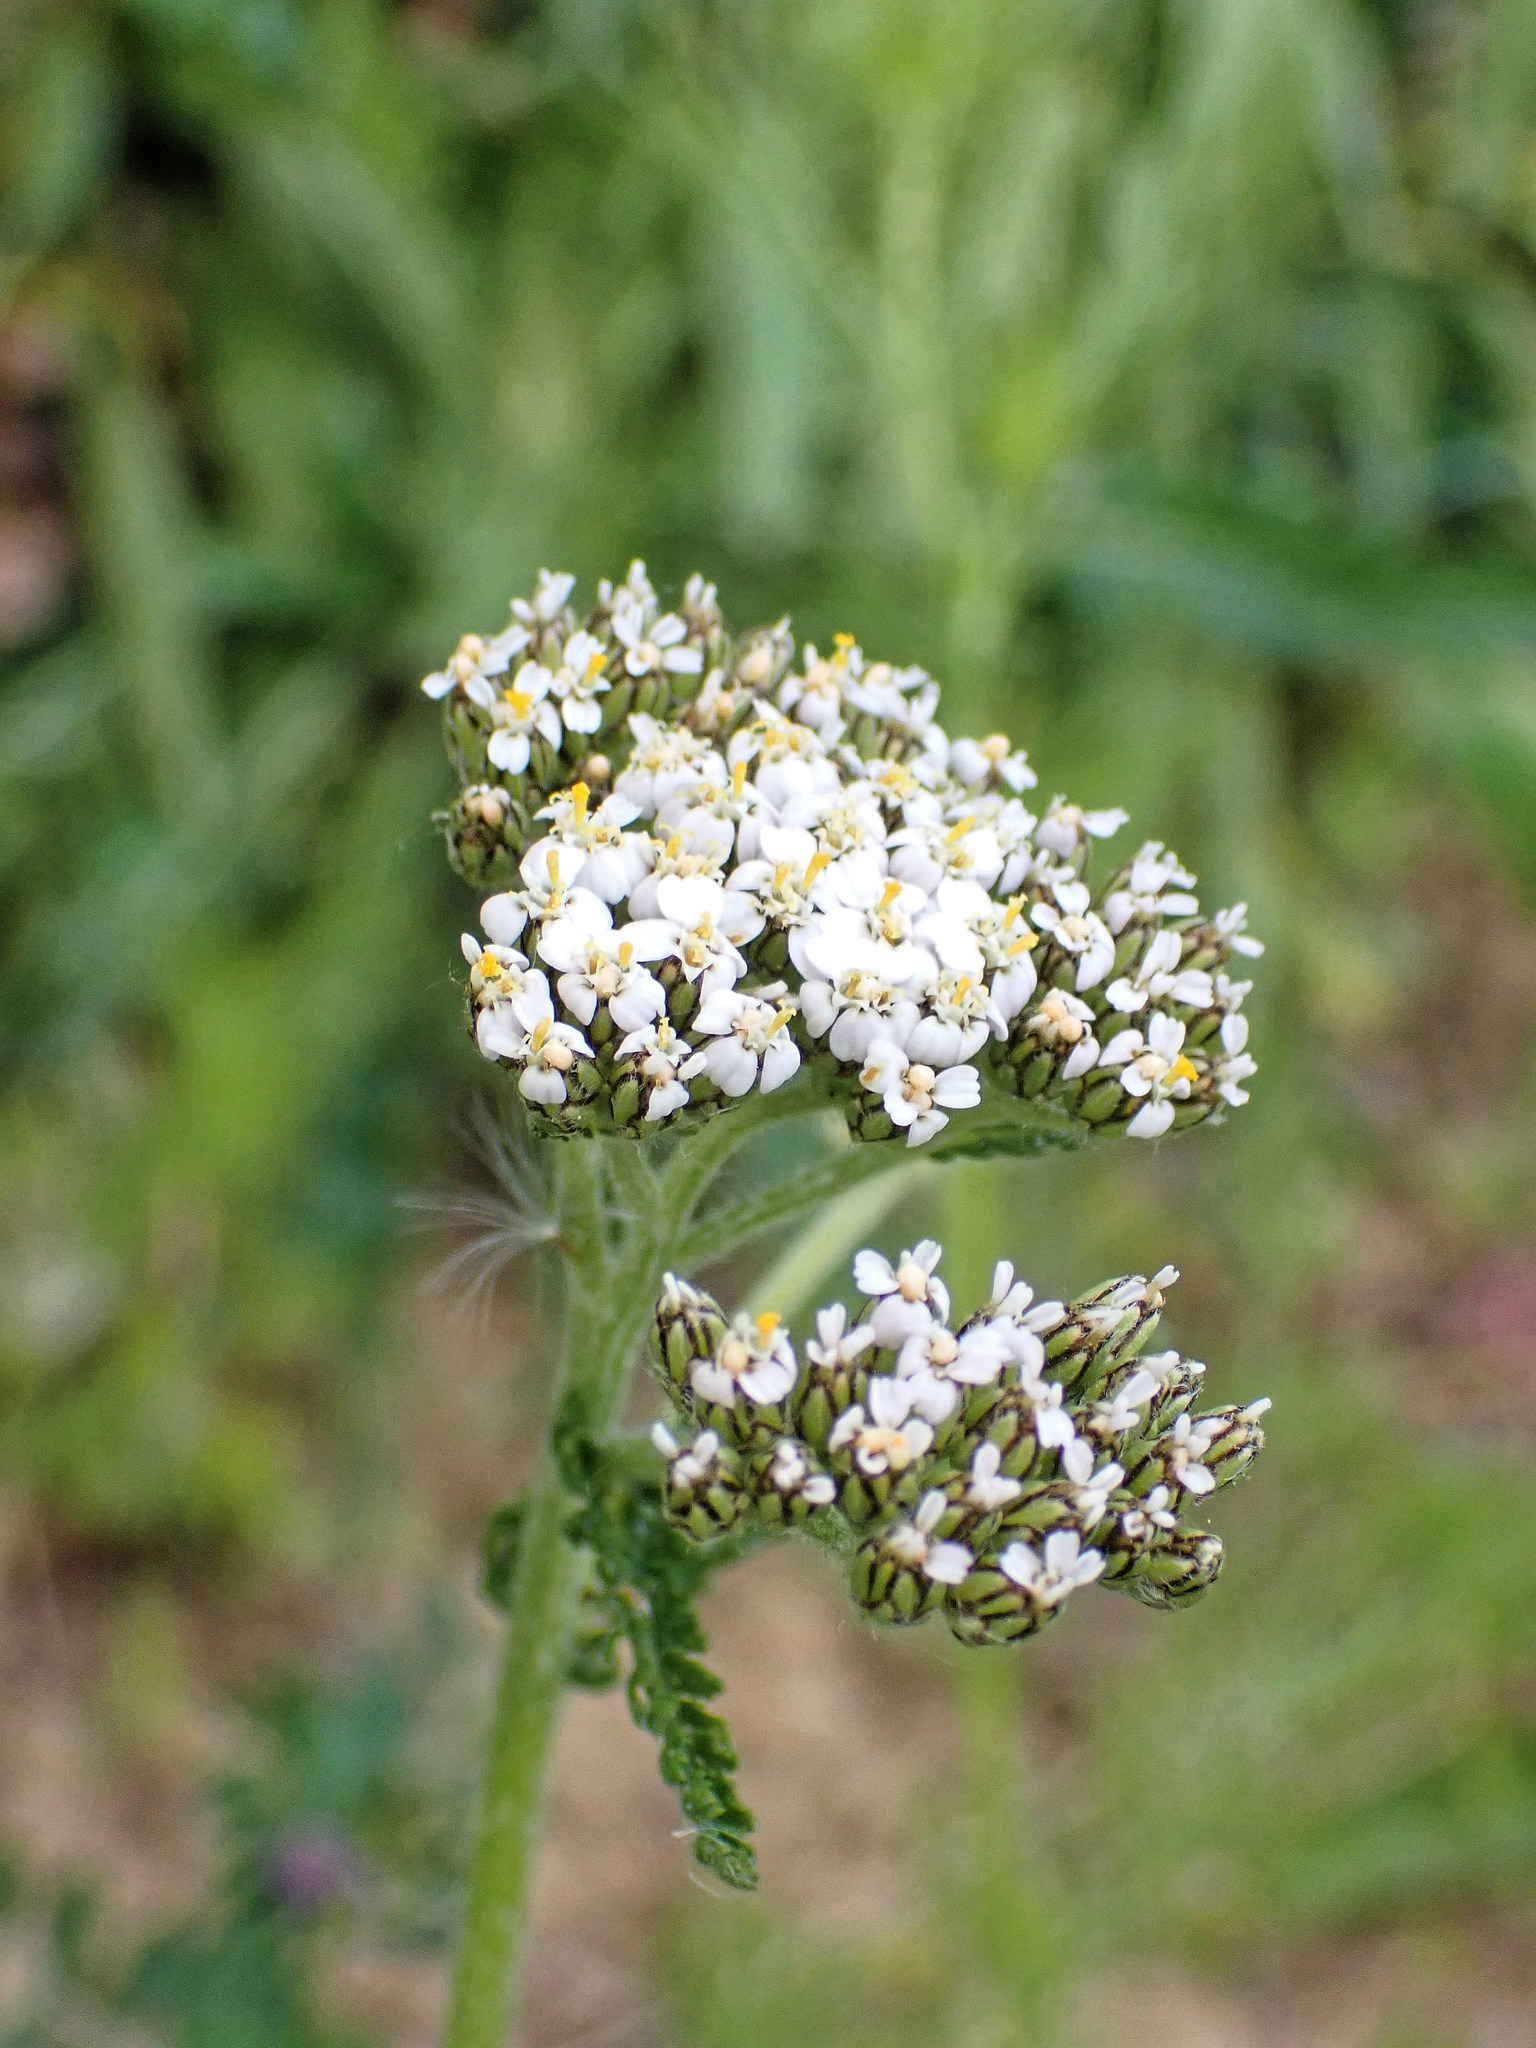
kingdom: Plantae
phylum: Tracheophyta
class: Magnoliopsida
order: Asterales
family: Asteraceae
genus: Achillea
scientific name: Achillea millefolium
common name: Yarrow
